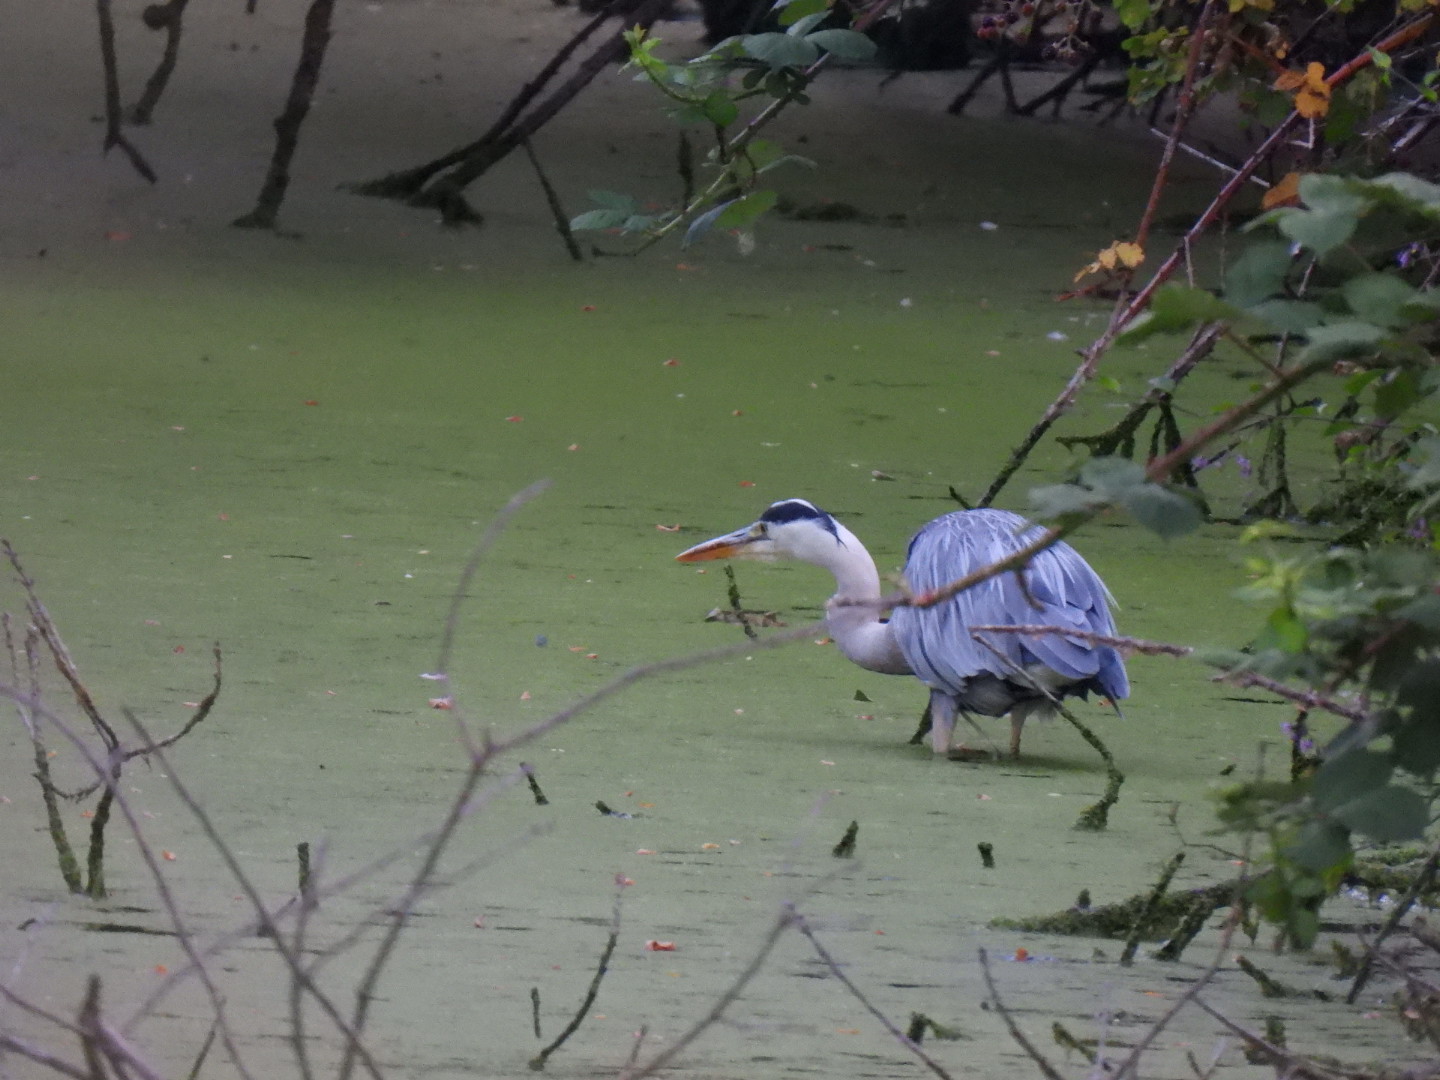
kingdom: Animalia
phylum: Chordata
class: Aves
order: Pelecaniformes
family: Ardeidae
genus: Ardea
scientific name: Ardea cinerea
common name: Grey heron
